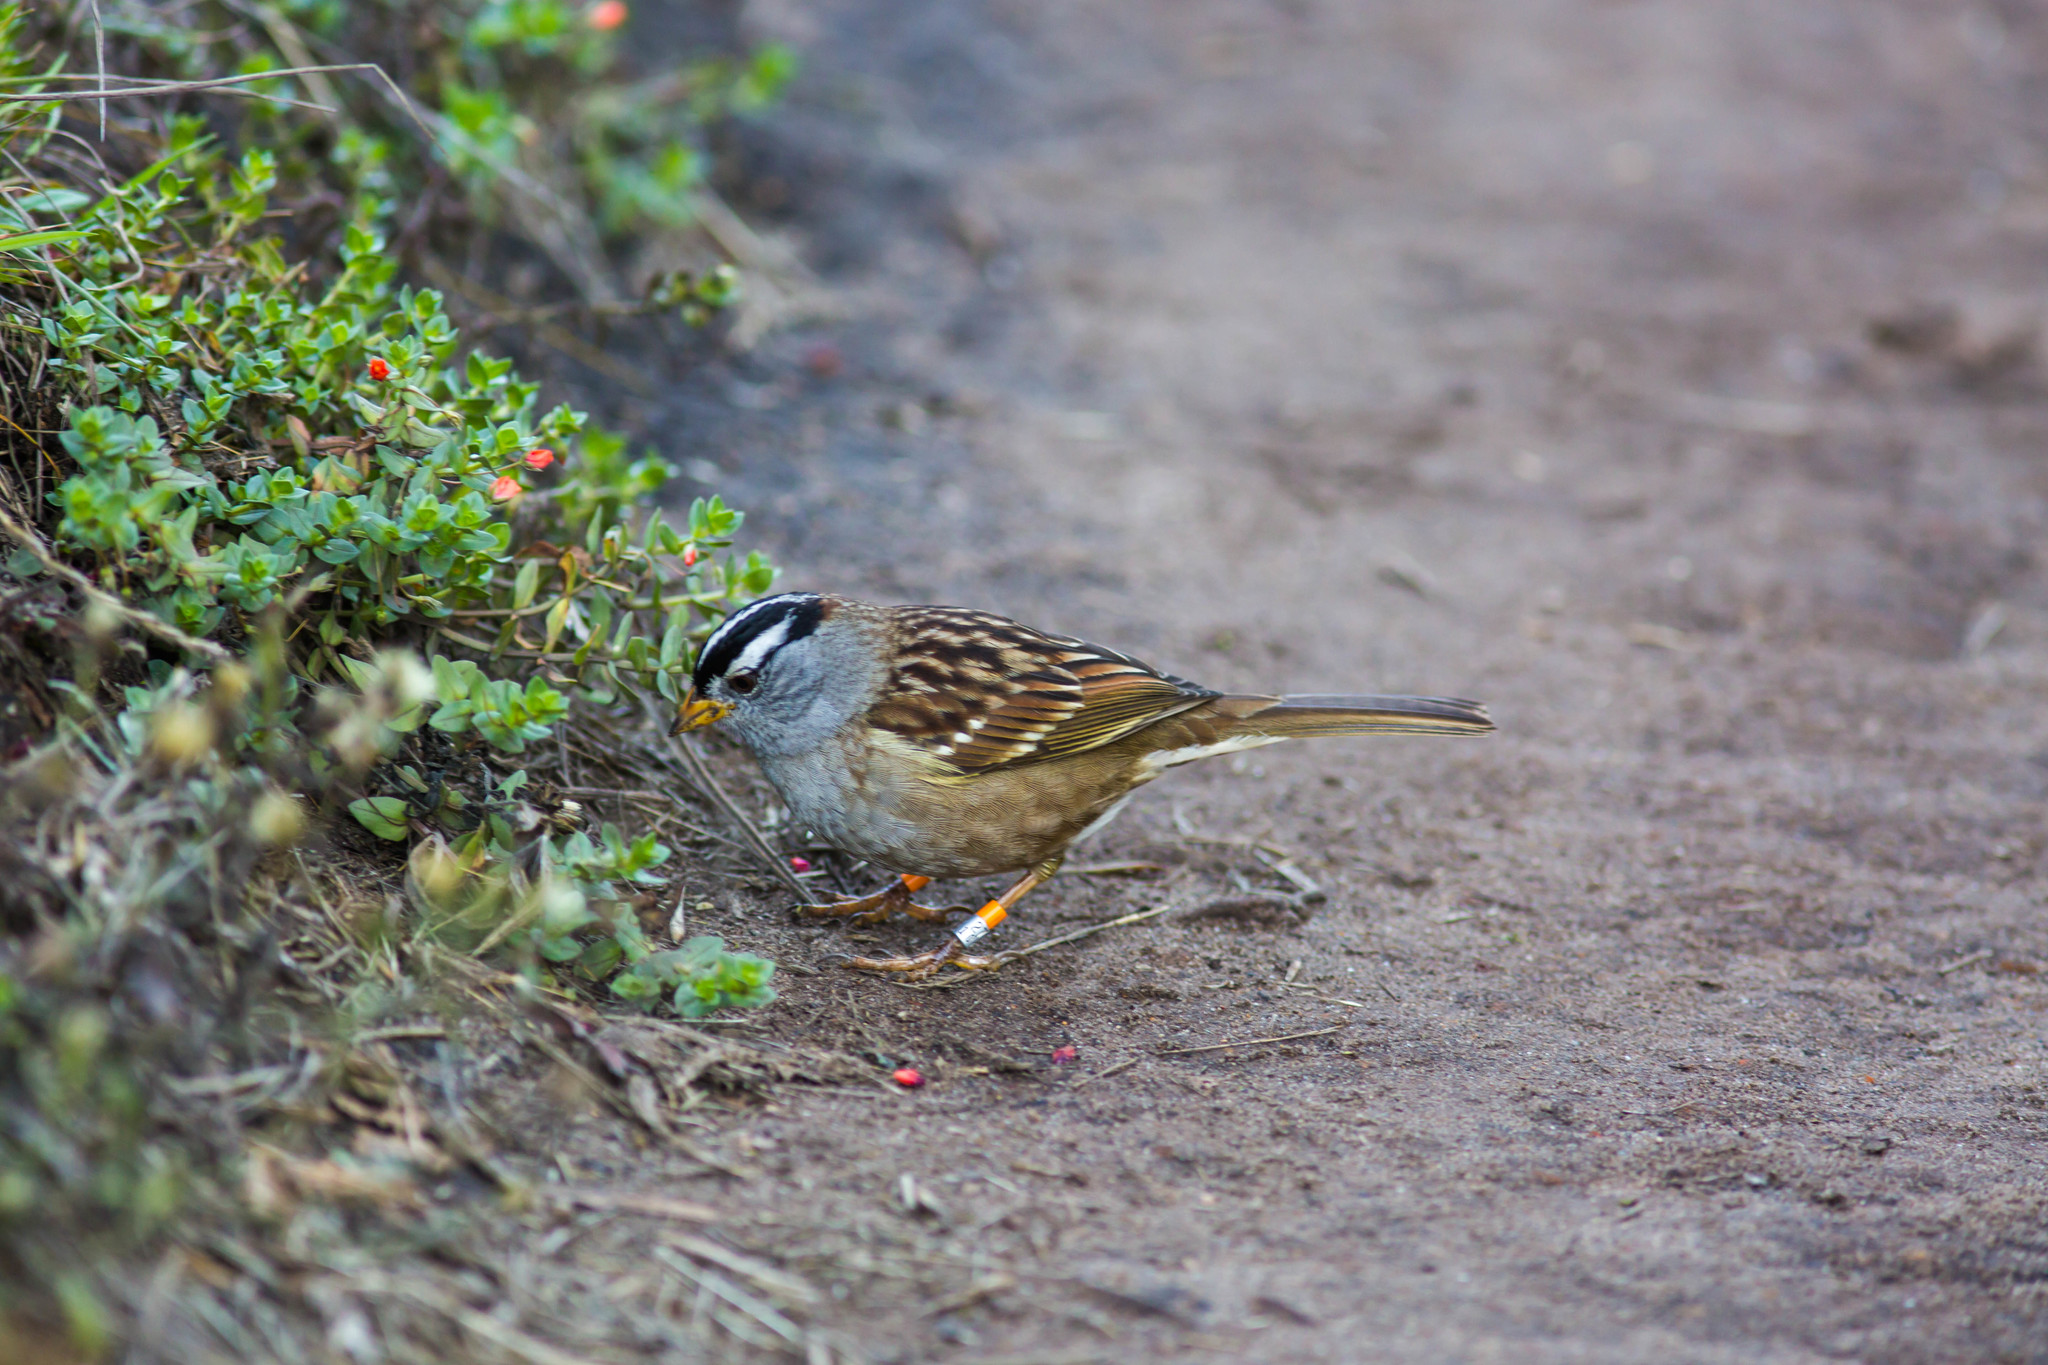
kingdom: Animalia
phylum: Chordata
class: Aves
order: Passeriformes
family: Passerellidae
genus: Zonotrichia
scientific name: Zonotrichia leucophrys
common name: White-crowned sparrow
